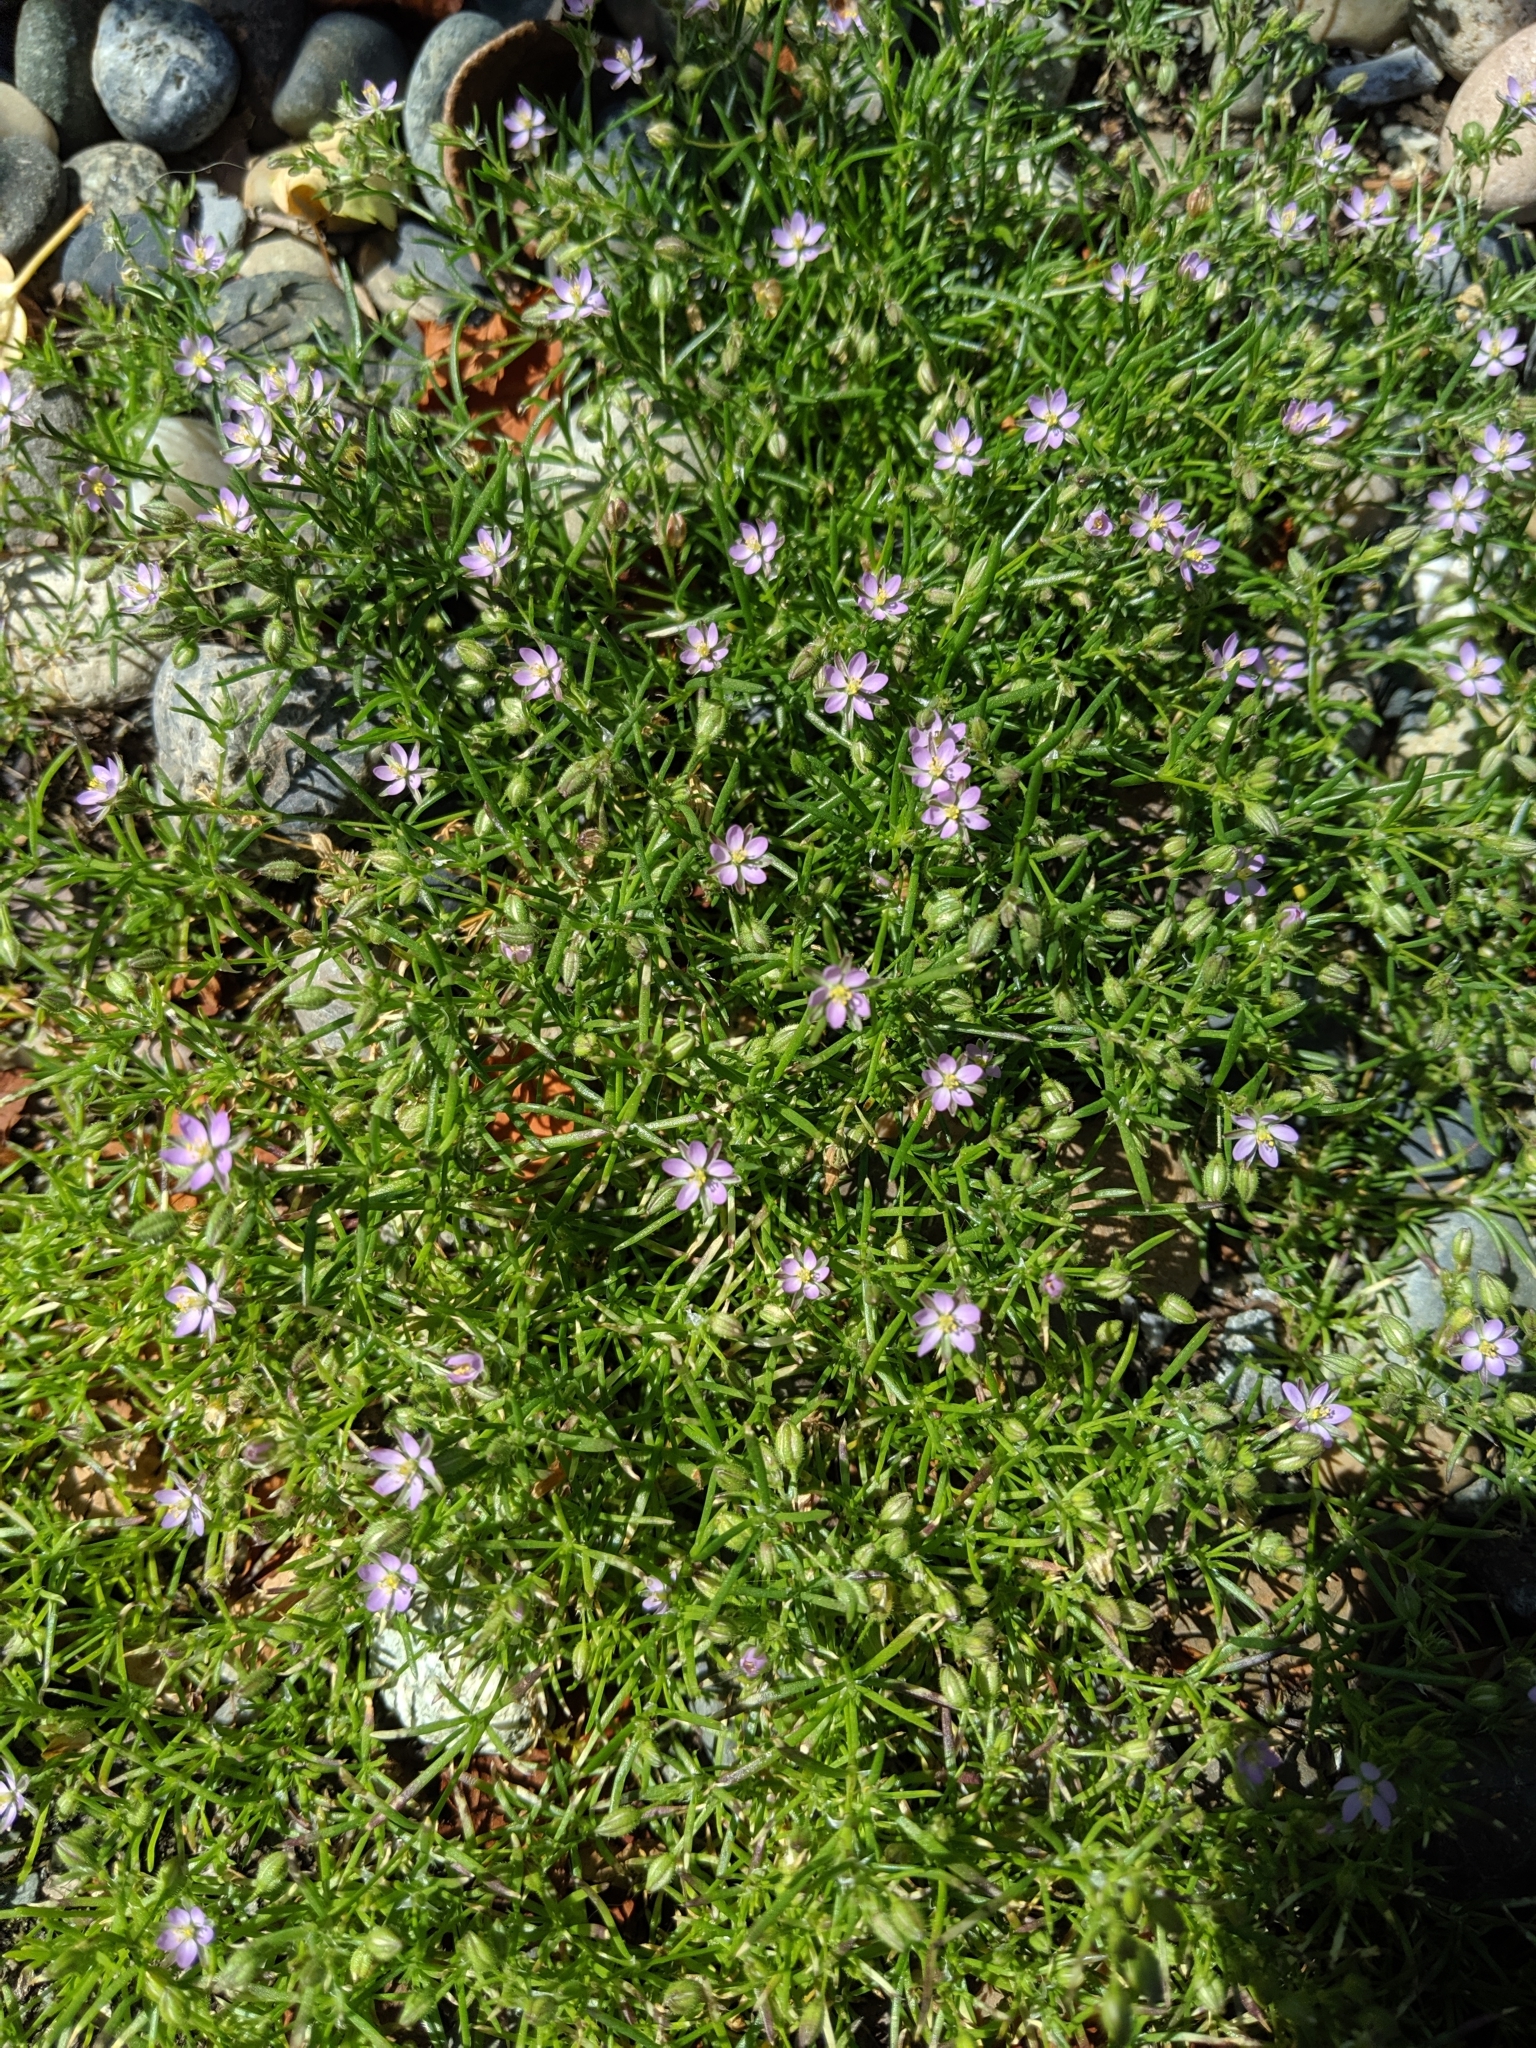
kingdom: Plantae
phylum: Tracheophyta
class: Magnoliopsida
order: Caryophyllales
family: Caryophyllaceae
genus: Spergularia
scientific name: Spergularia rubra
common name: Red sand-spurrey
